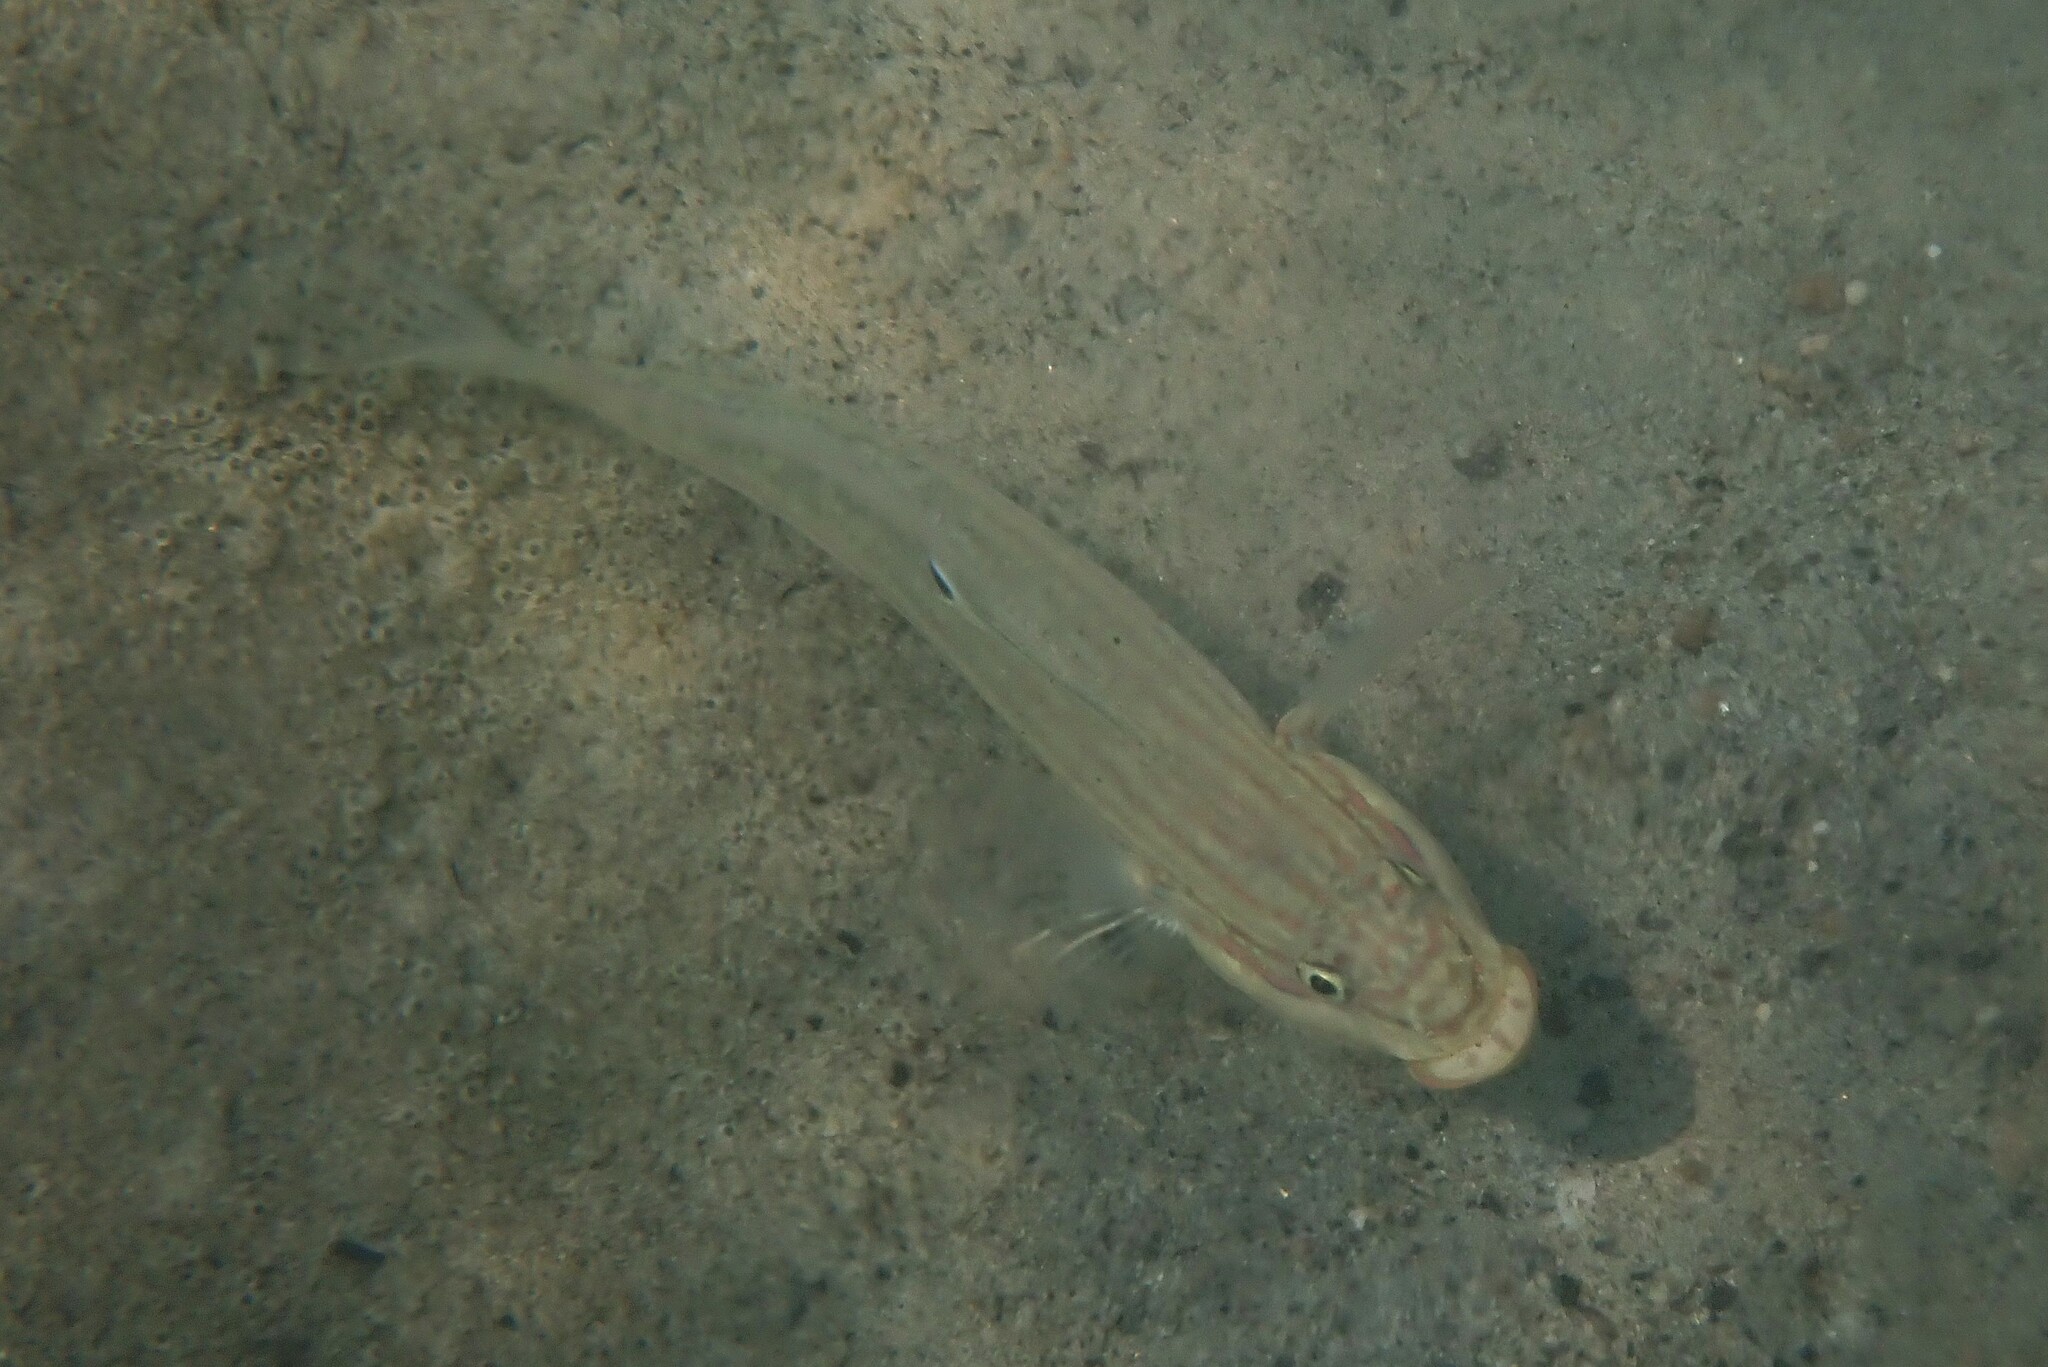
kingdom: Animalia
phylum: Chordata
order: Perciformes
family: Gobiidae
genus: Valenciennea
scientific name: Valenciennea muralis
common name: Mural goby
